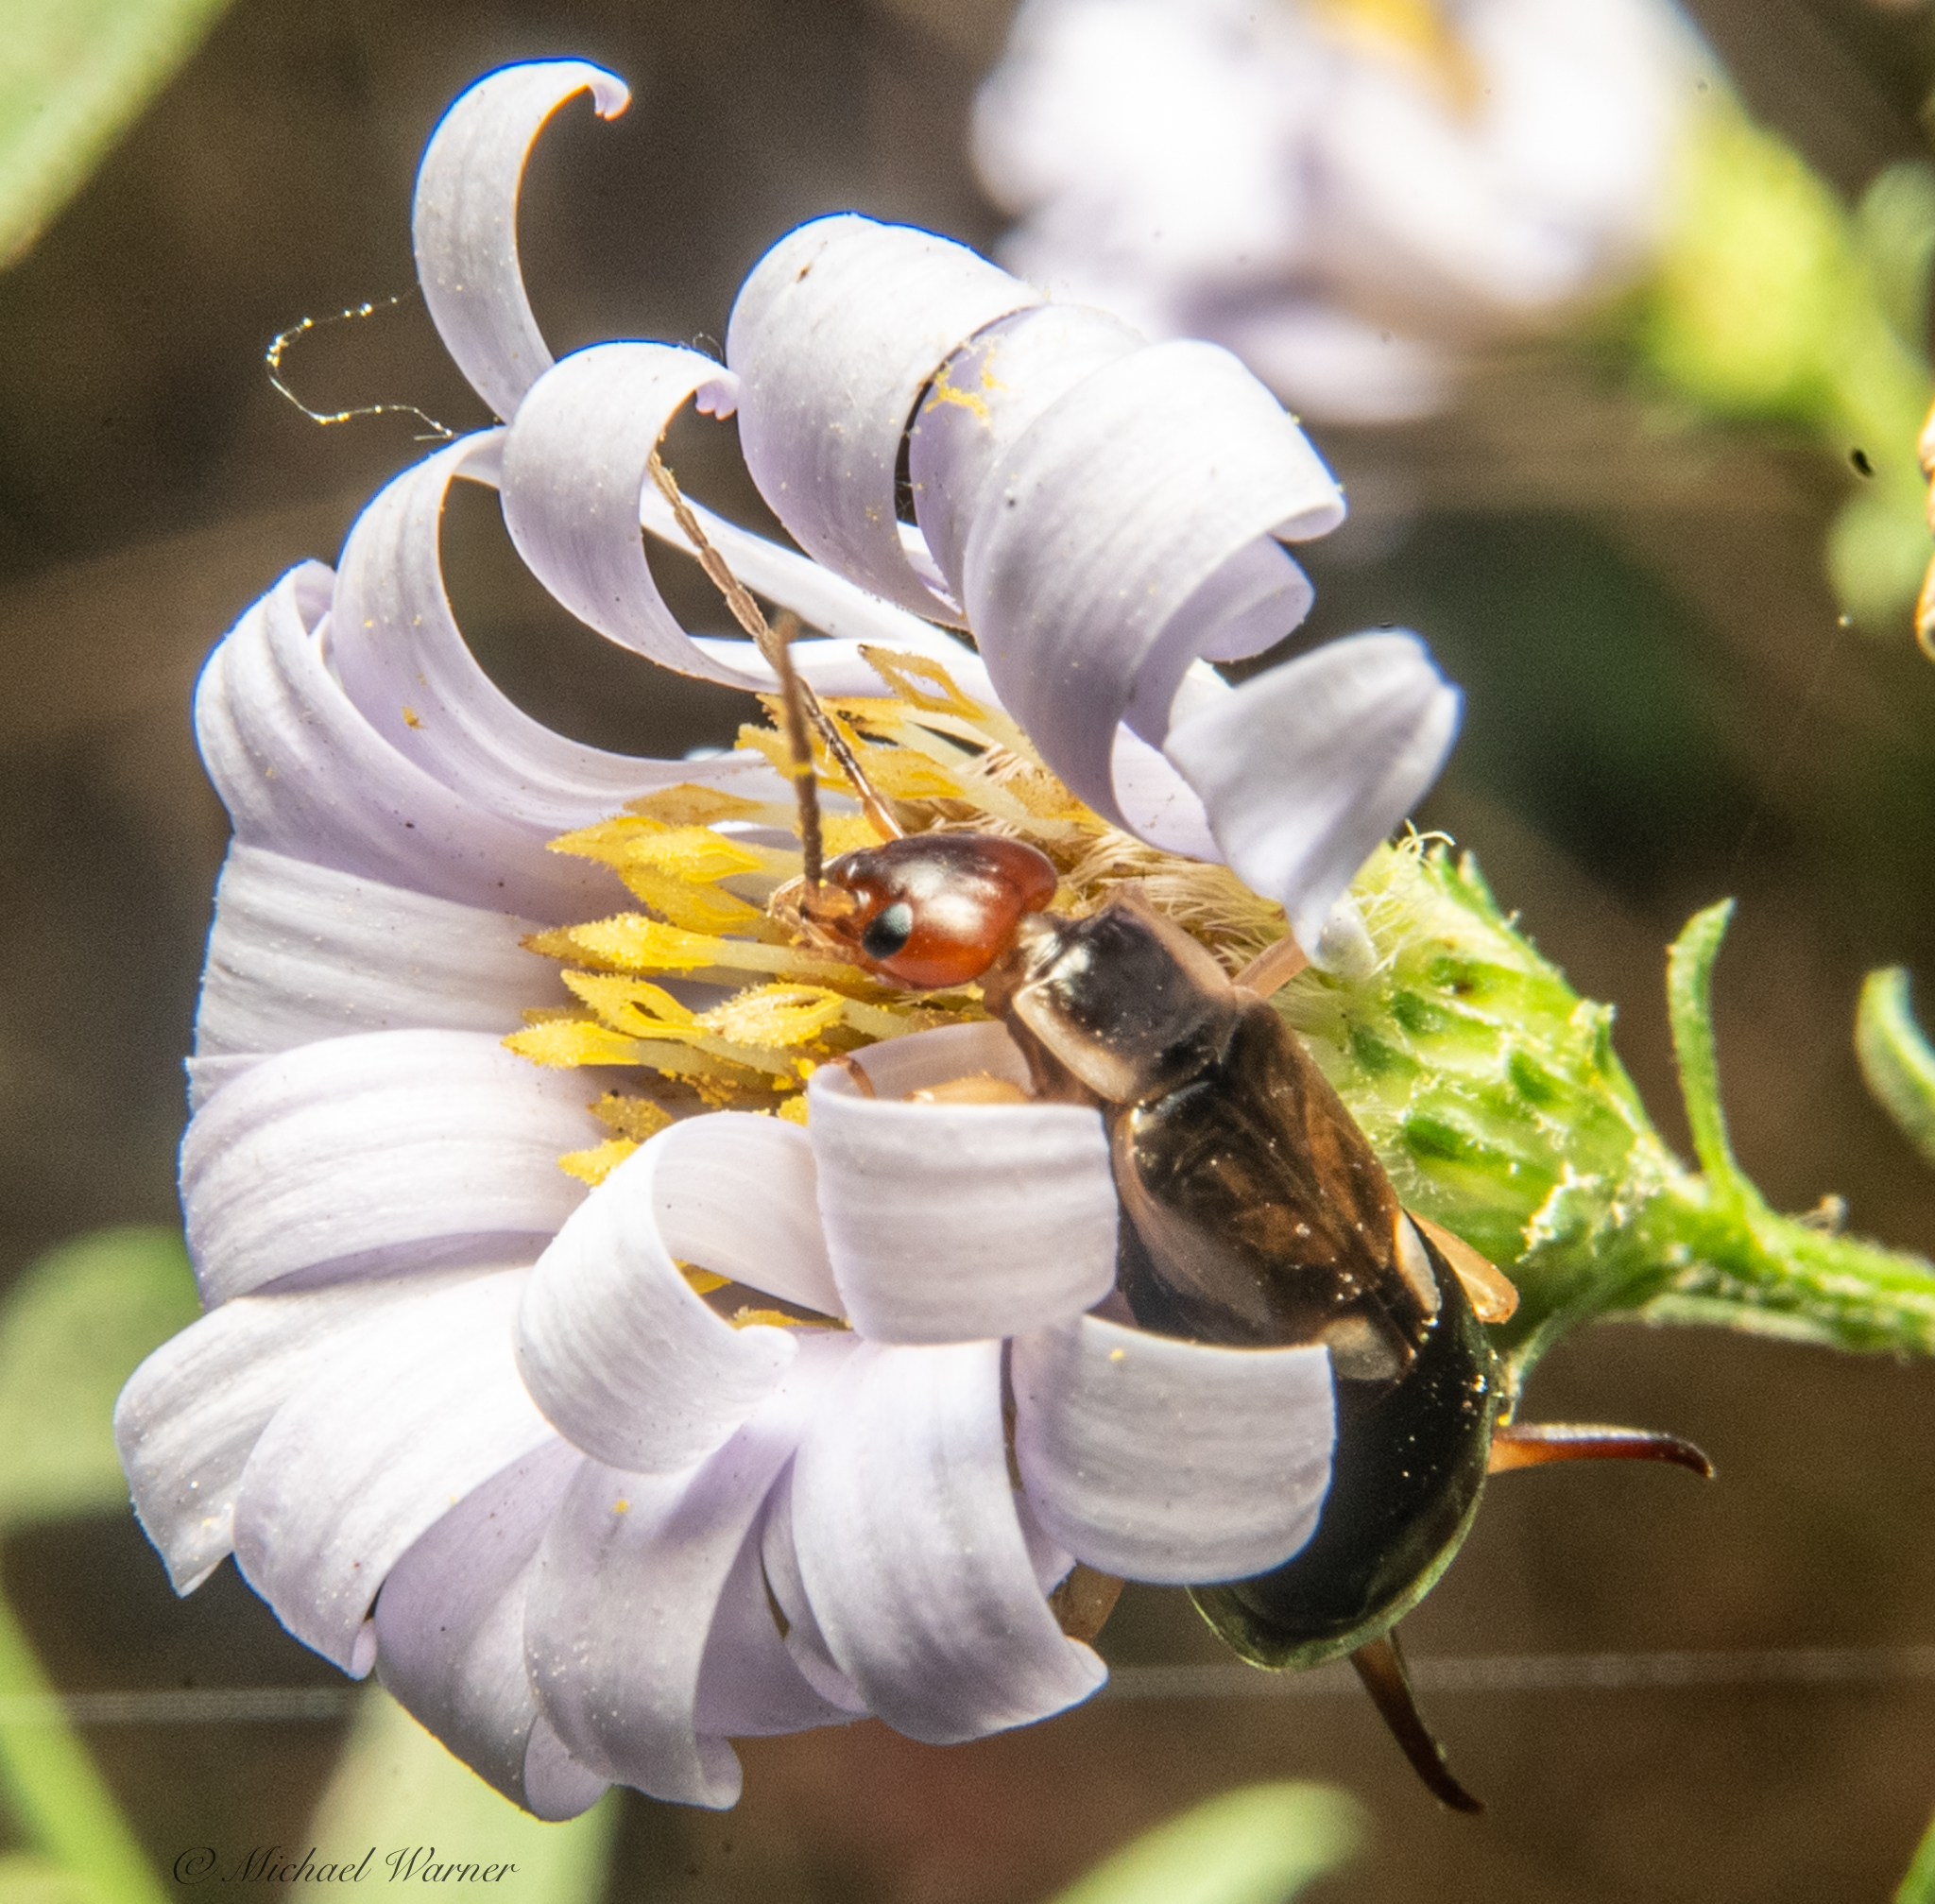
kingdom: Animalia
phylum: Arthropoda
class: Insecta
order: Dermaptera
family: Forficulidae
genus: Forficula
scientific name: Forficula dentata
